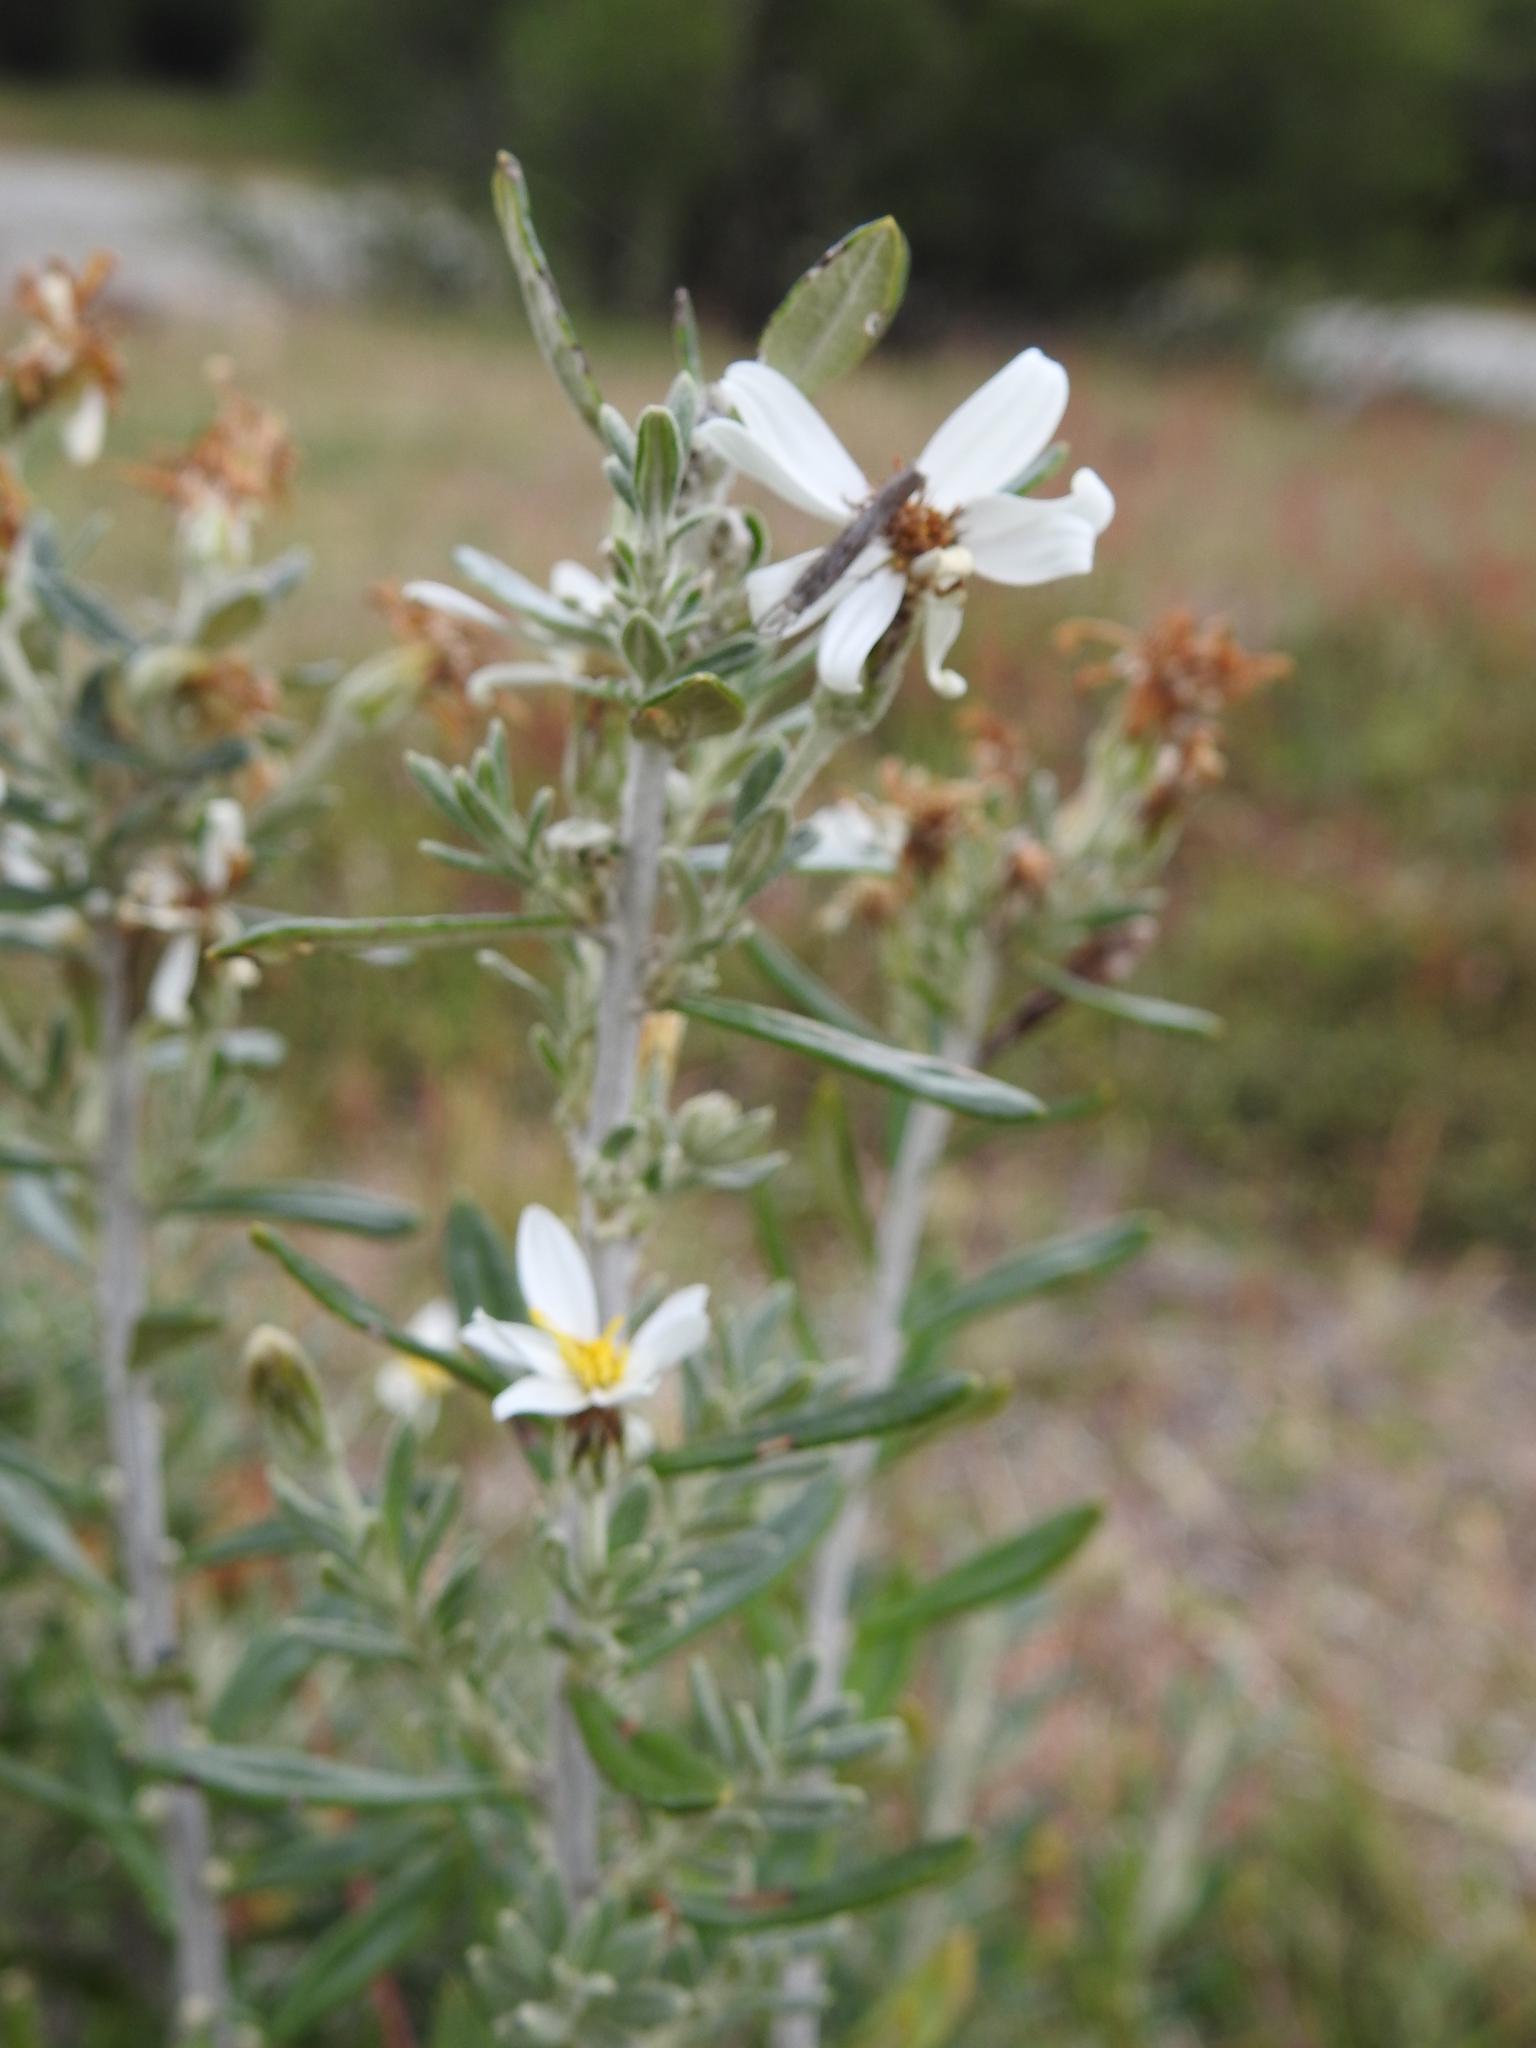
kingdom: Plantae
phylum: Tracheophyta
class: Magnoliopsida
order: Asterales
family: Asteraceae
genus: Chiliotrichum
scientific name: Chiliotrichum diffusum
